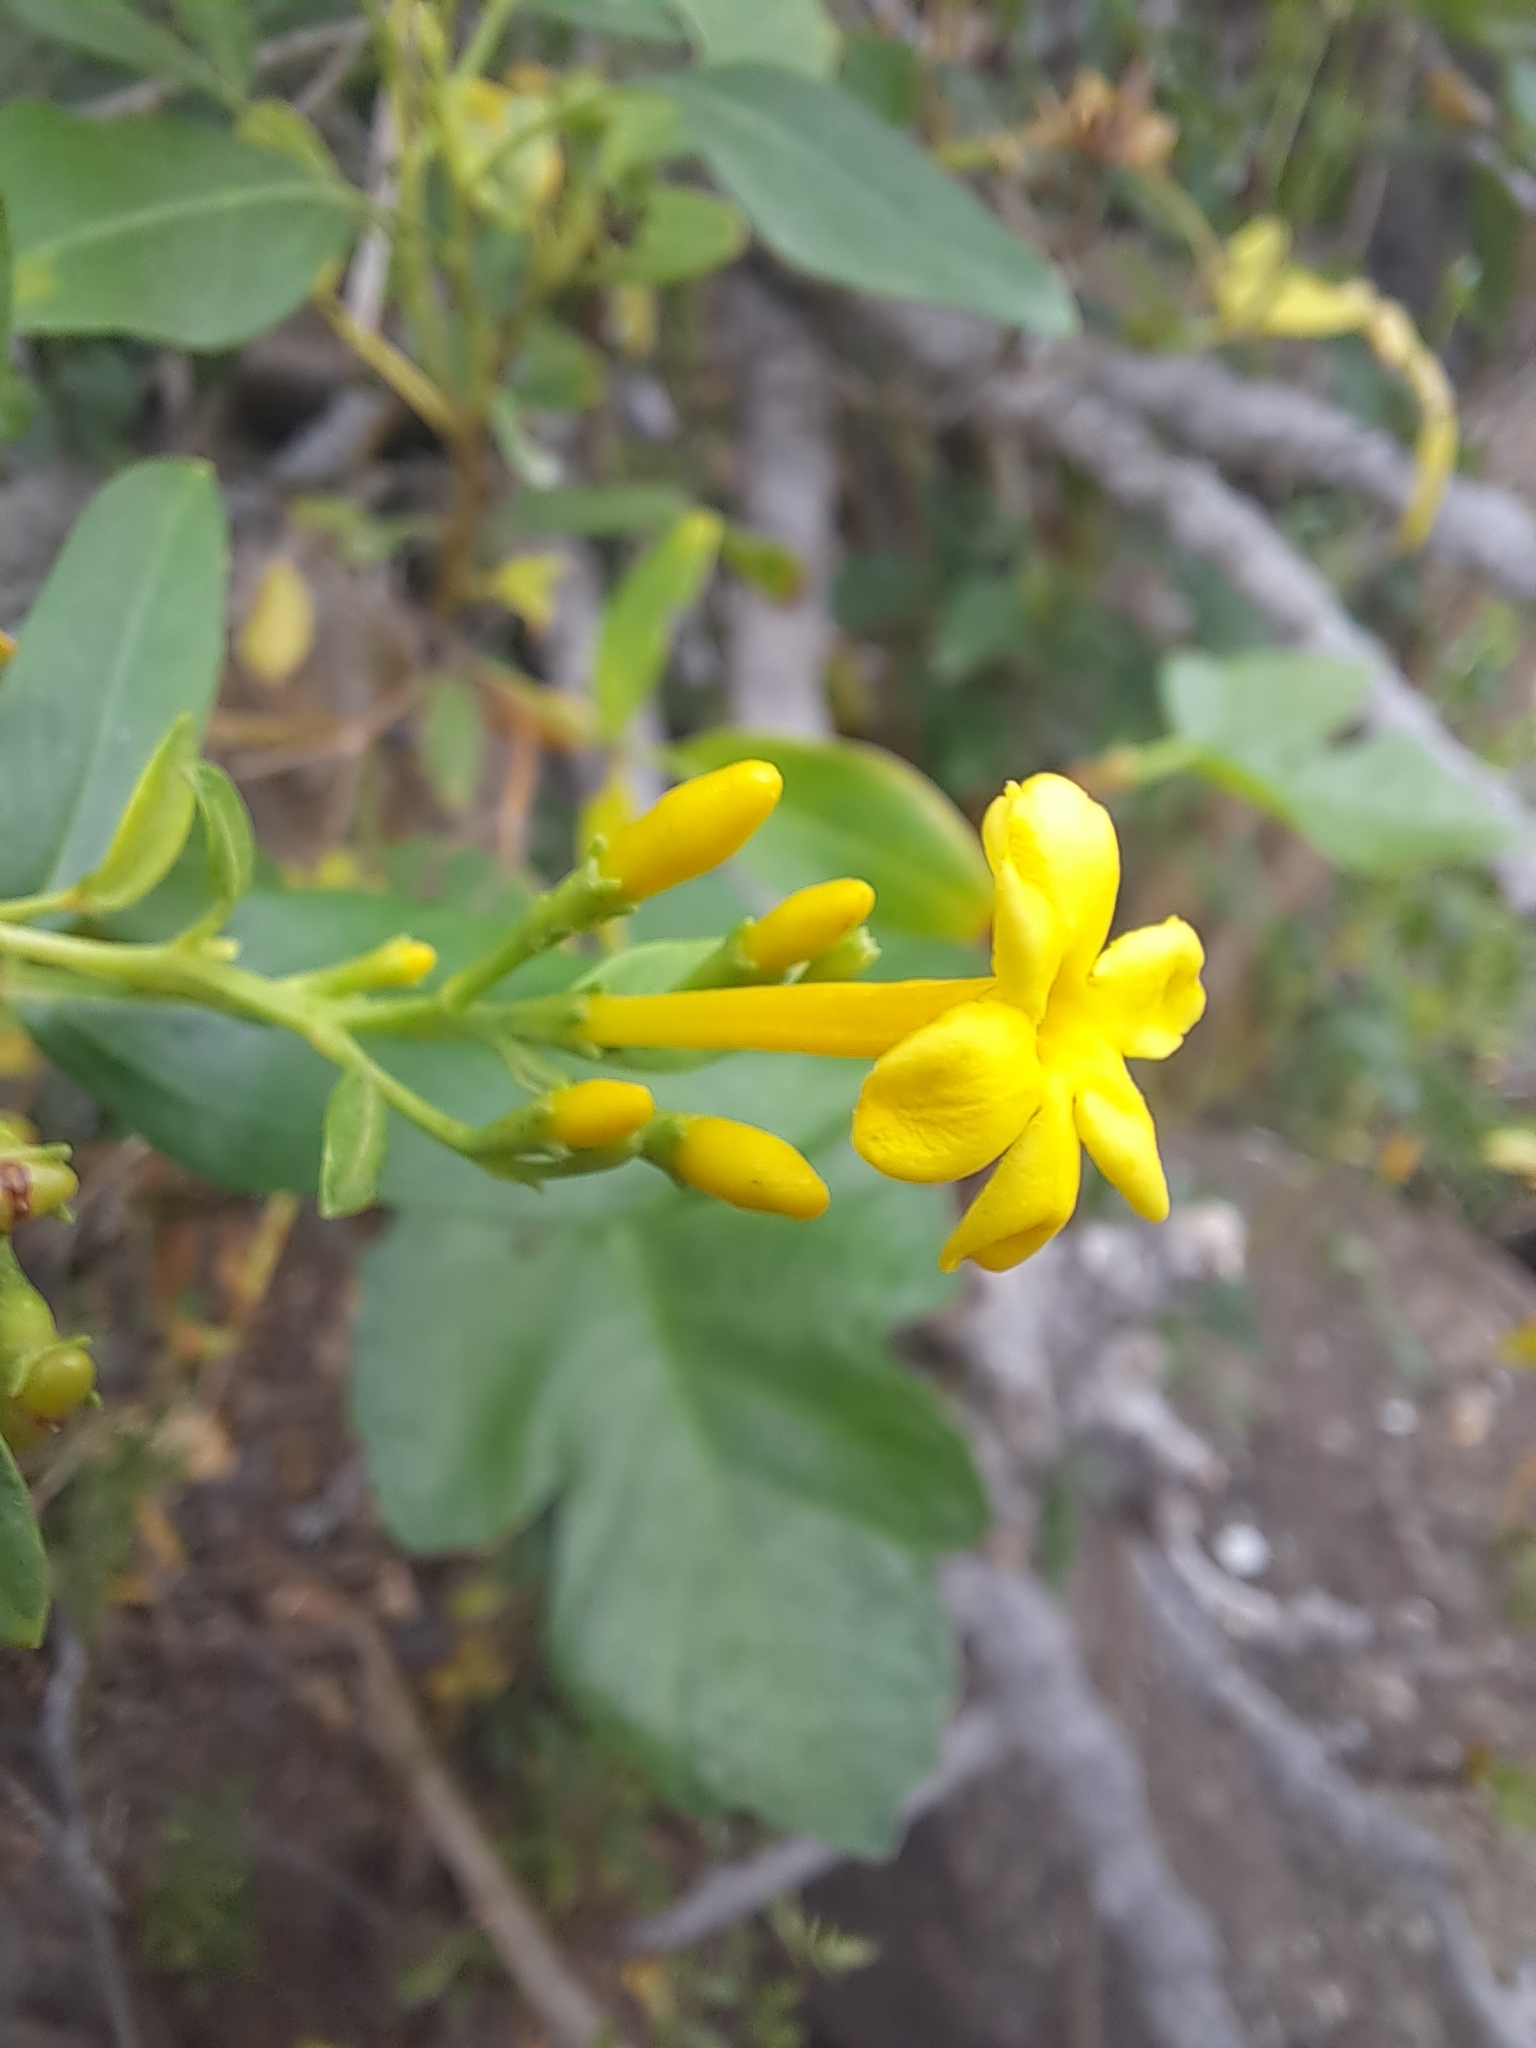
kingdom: Plantae
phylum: Tracheophyta
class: Magnoliopsida
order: Lamiales
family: Oleaceae
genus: Chrysojasminum
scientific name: Chrysojasminum odoratissimum
